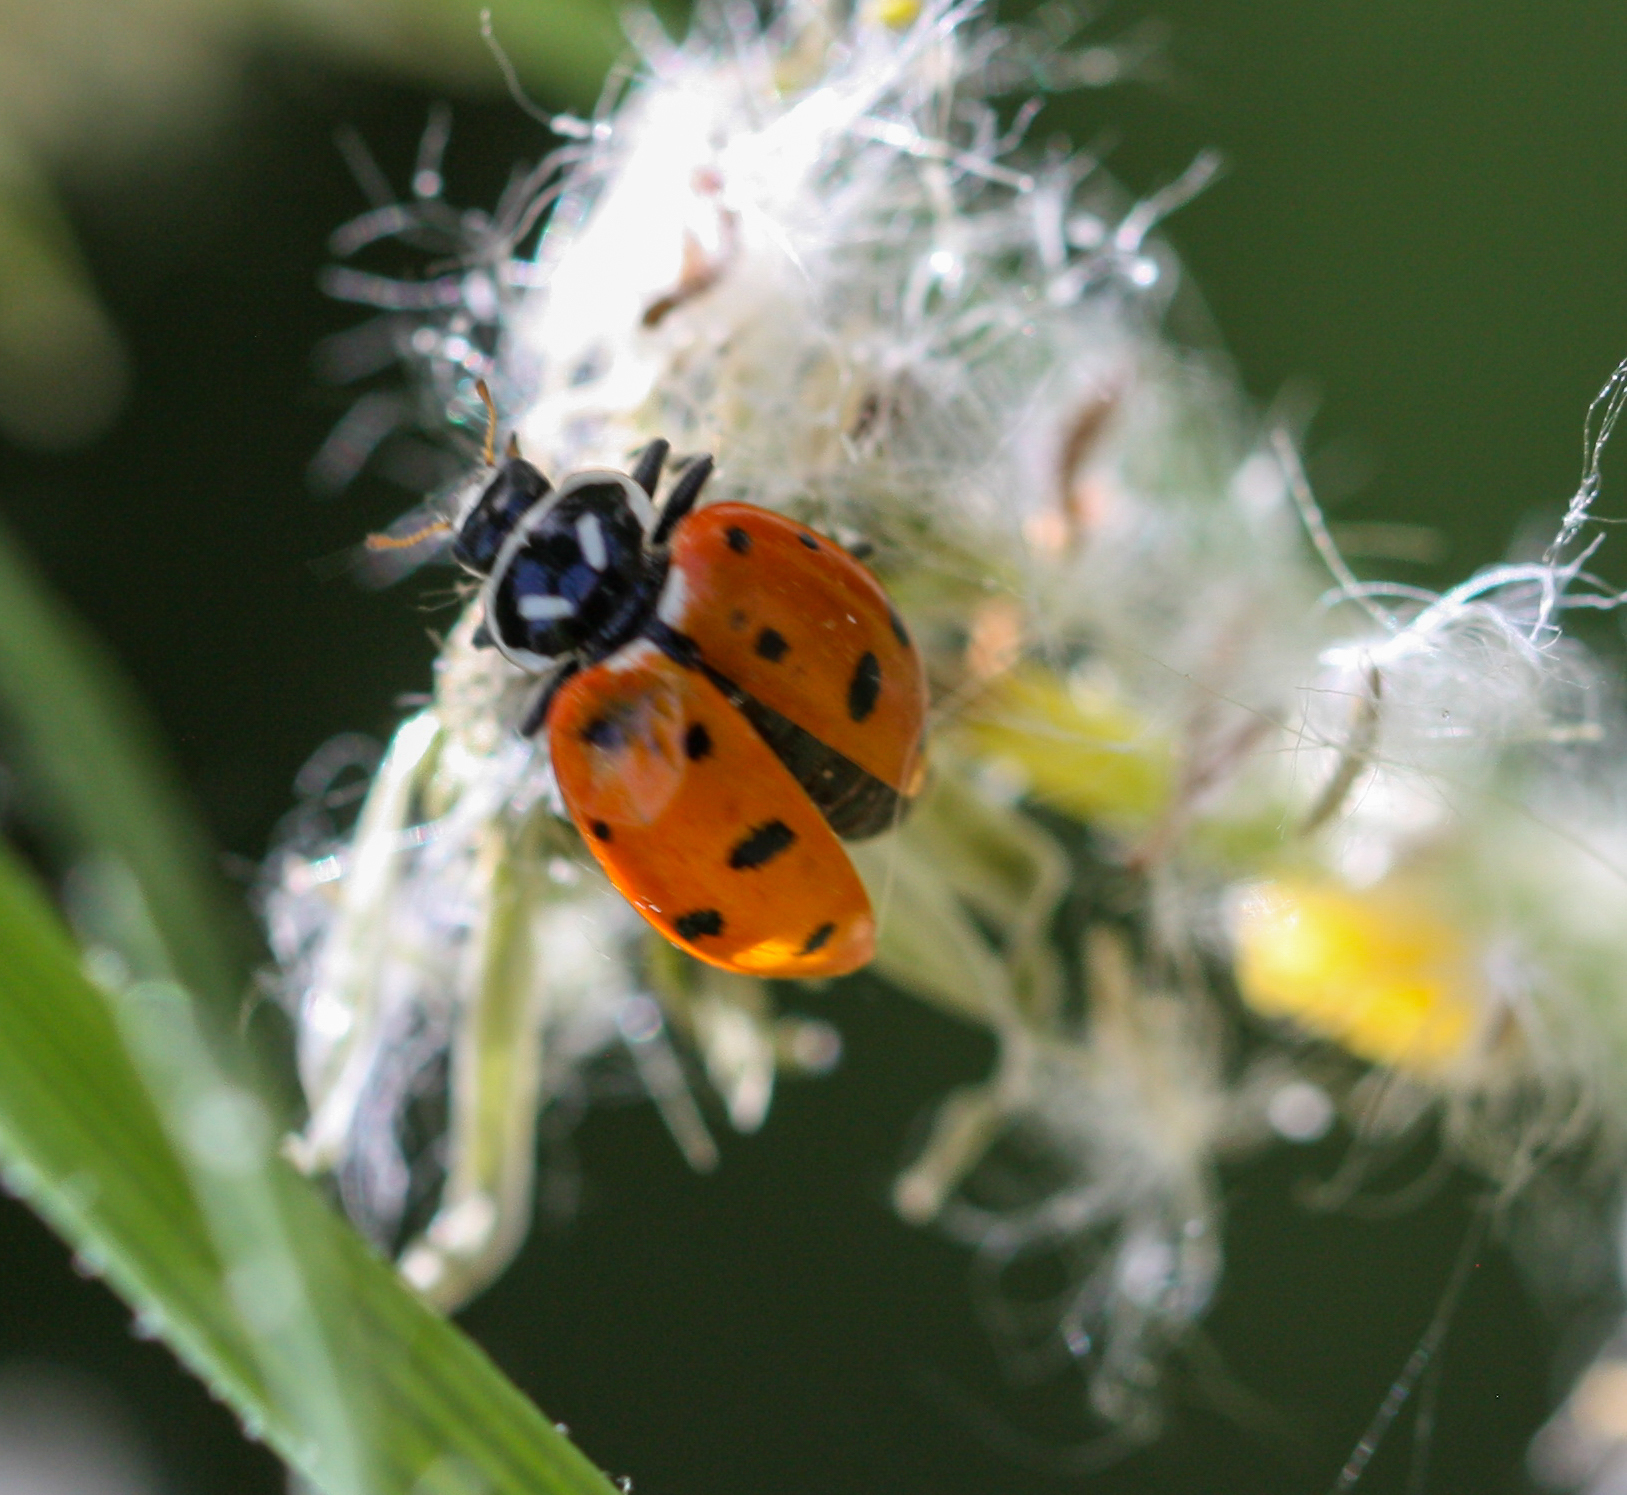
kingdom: Animalia
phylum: Arthropoda
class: Insecta
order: Coleoptera
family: Coccinellidae
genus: Hippodamia
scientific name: Hippodamia convergens
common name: Convergent lady beetle
